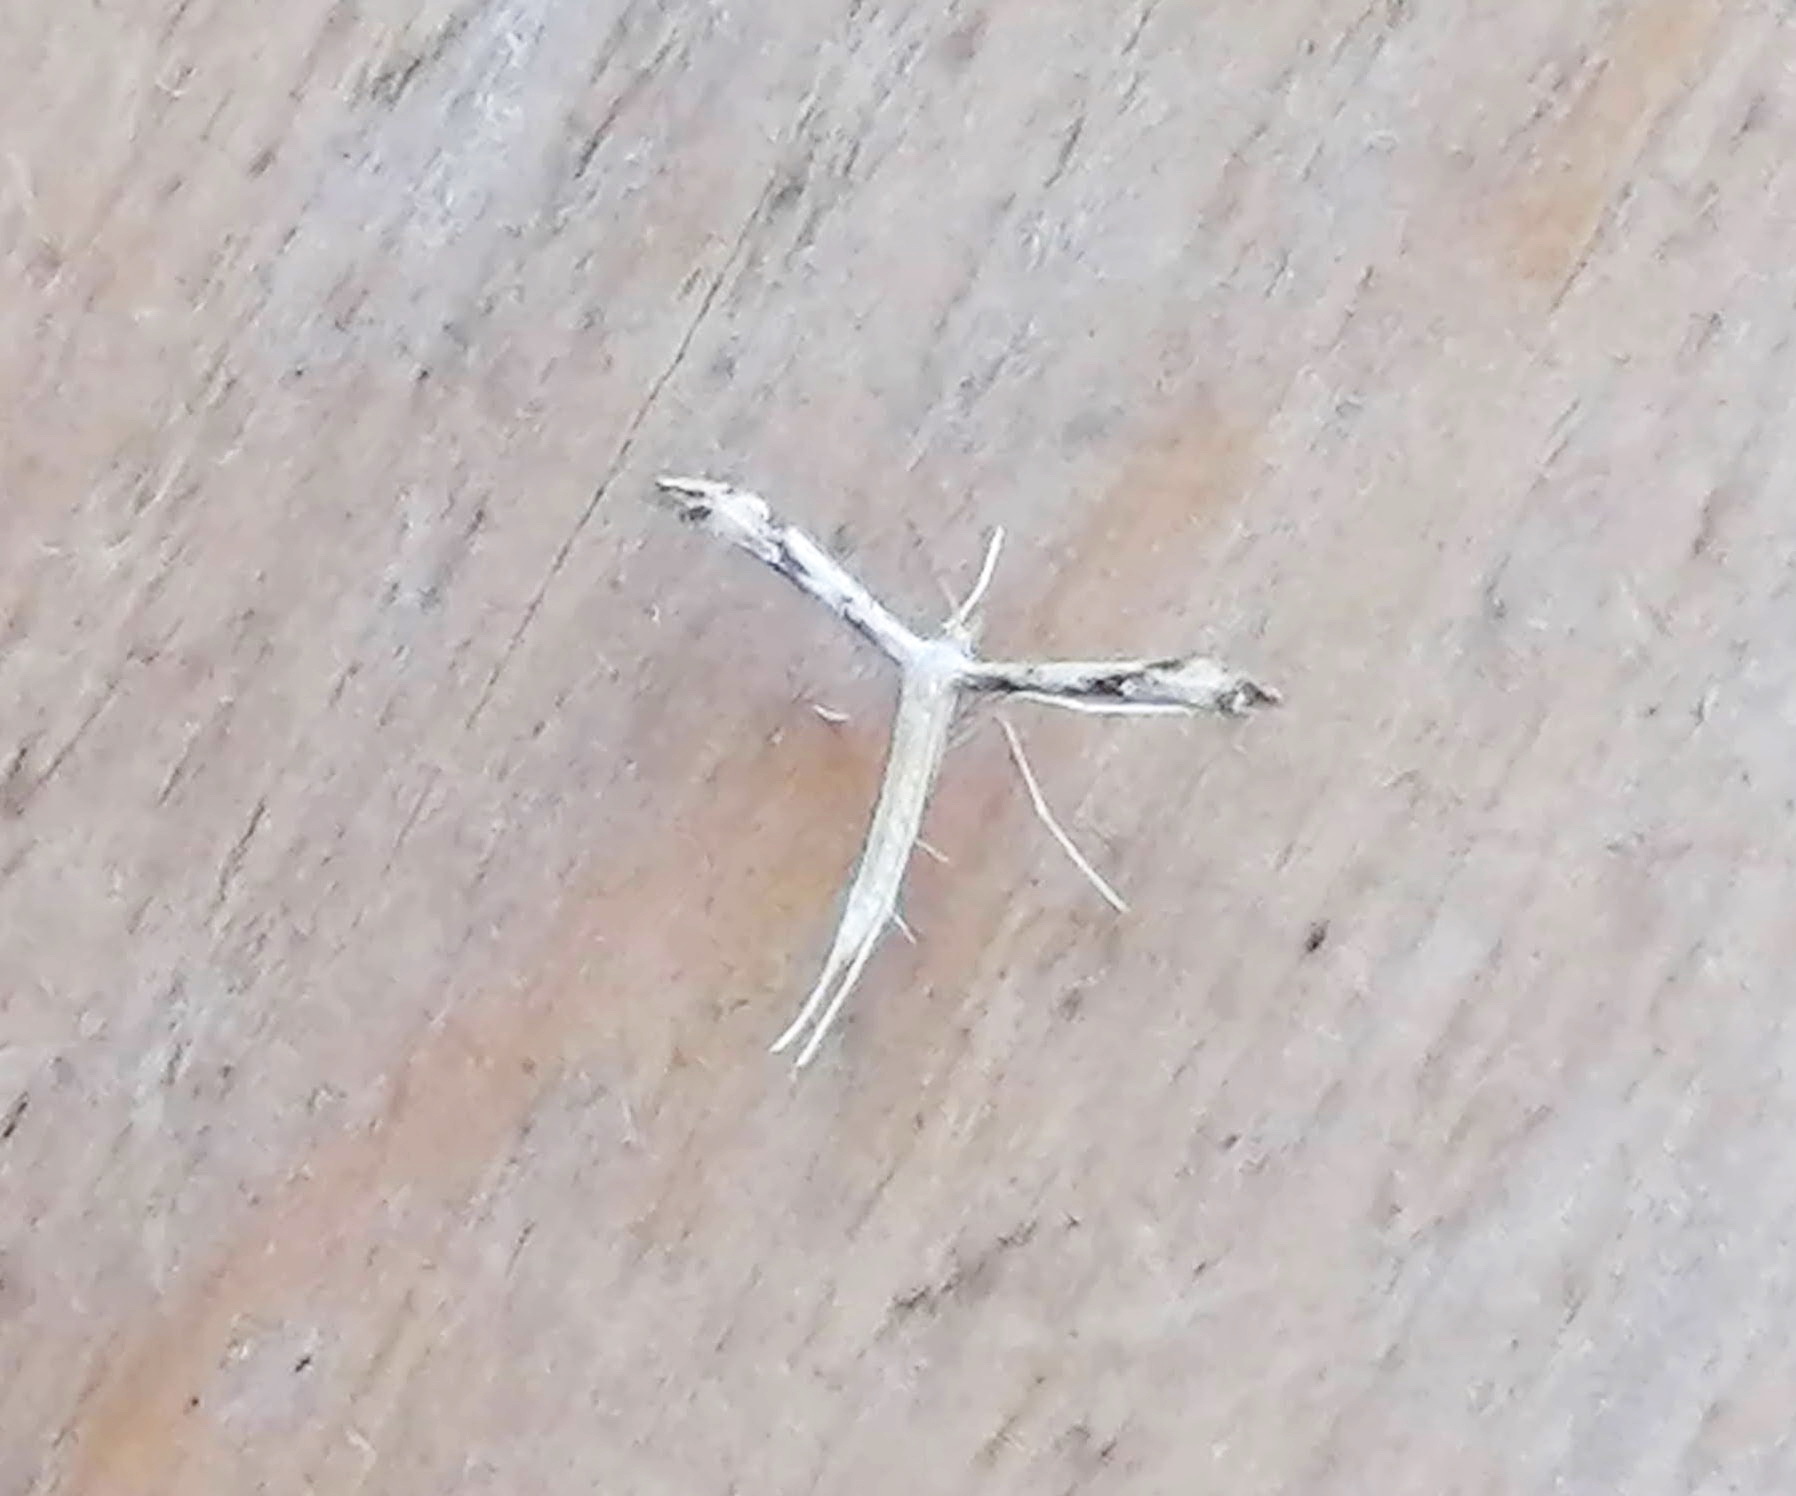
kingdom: Animalia
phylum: Arthropoda
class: Insecta
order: Lepidoptera
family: Pterophoridae
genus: Adaina
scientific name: Adaina montanus
